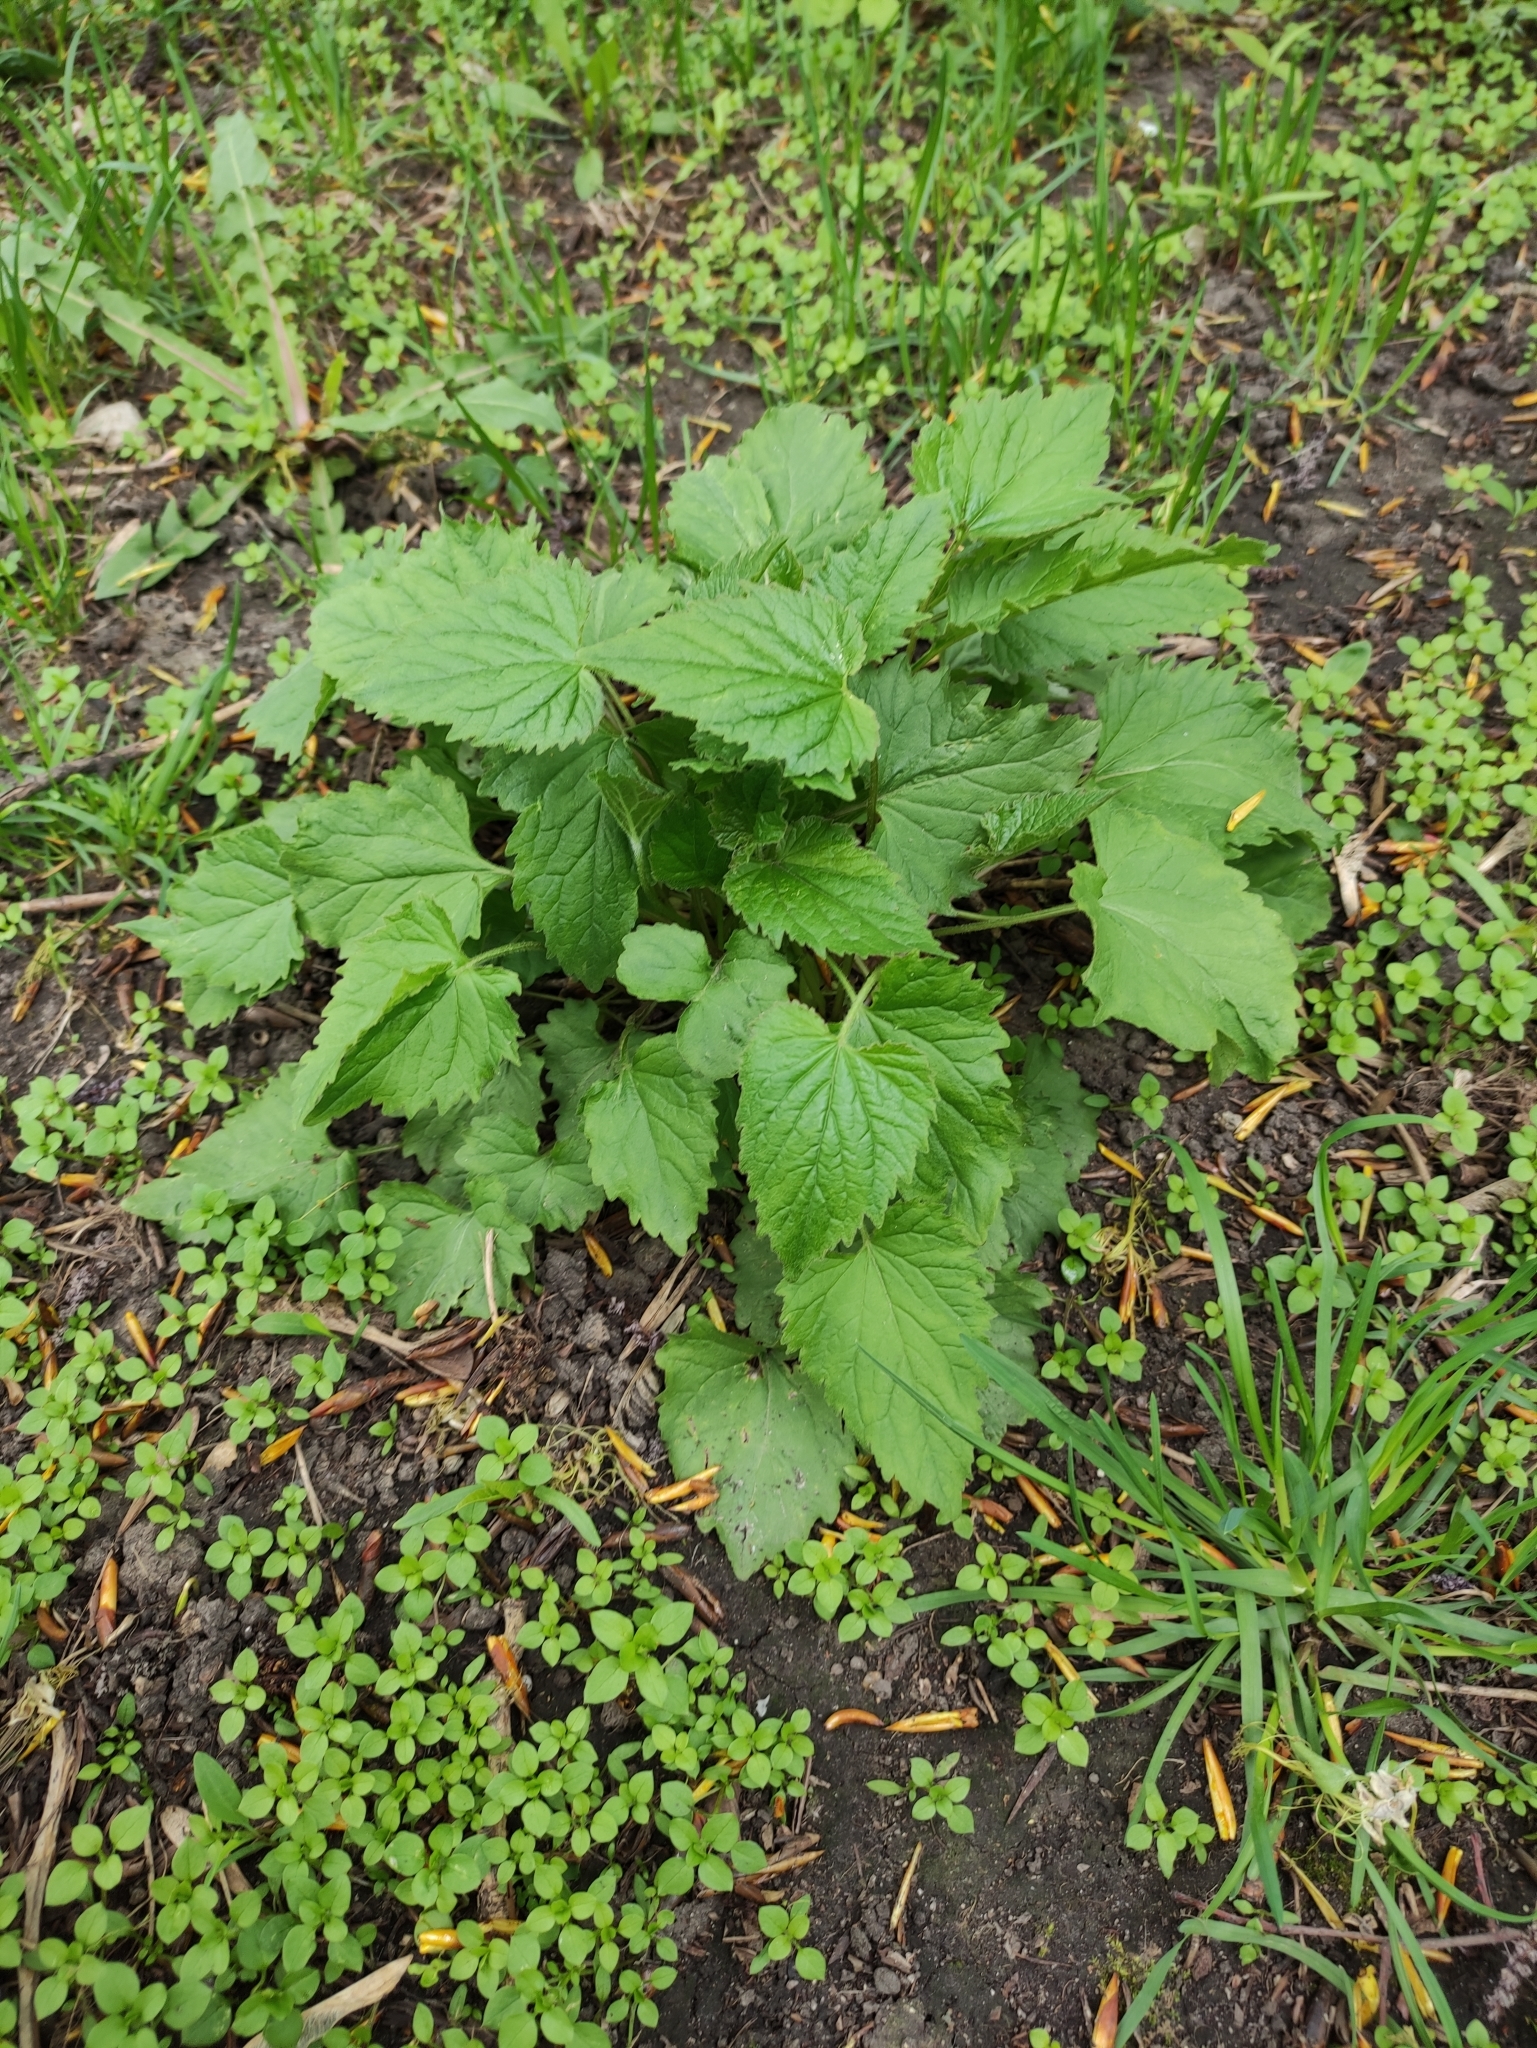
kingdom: Plantae
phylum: Tracheophyta
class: Magnoliopsida
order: Asterales
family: Campanulaceae
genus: Campanula
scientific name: Campanula trachelium
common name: Nettle-leaved bellflower
